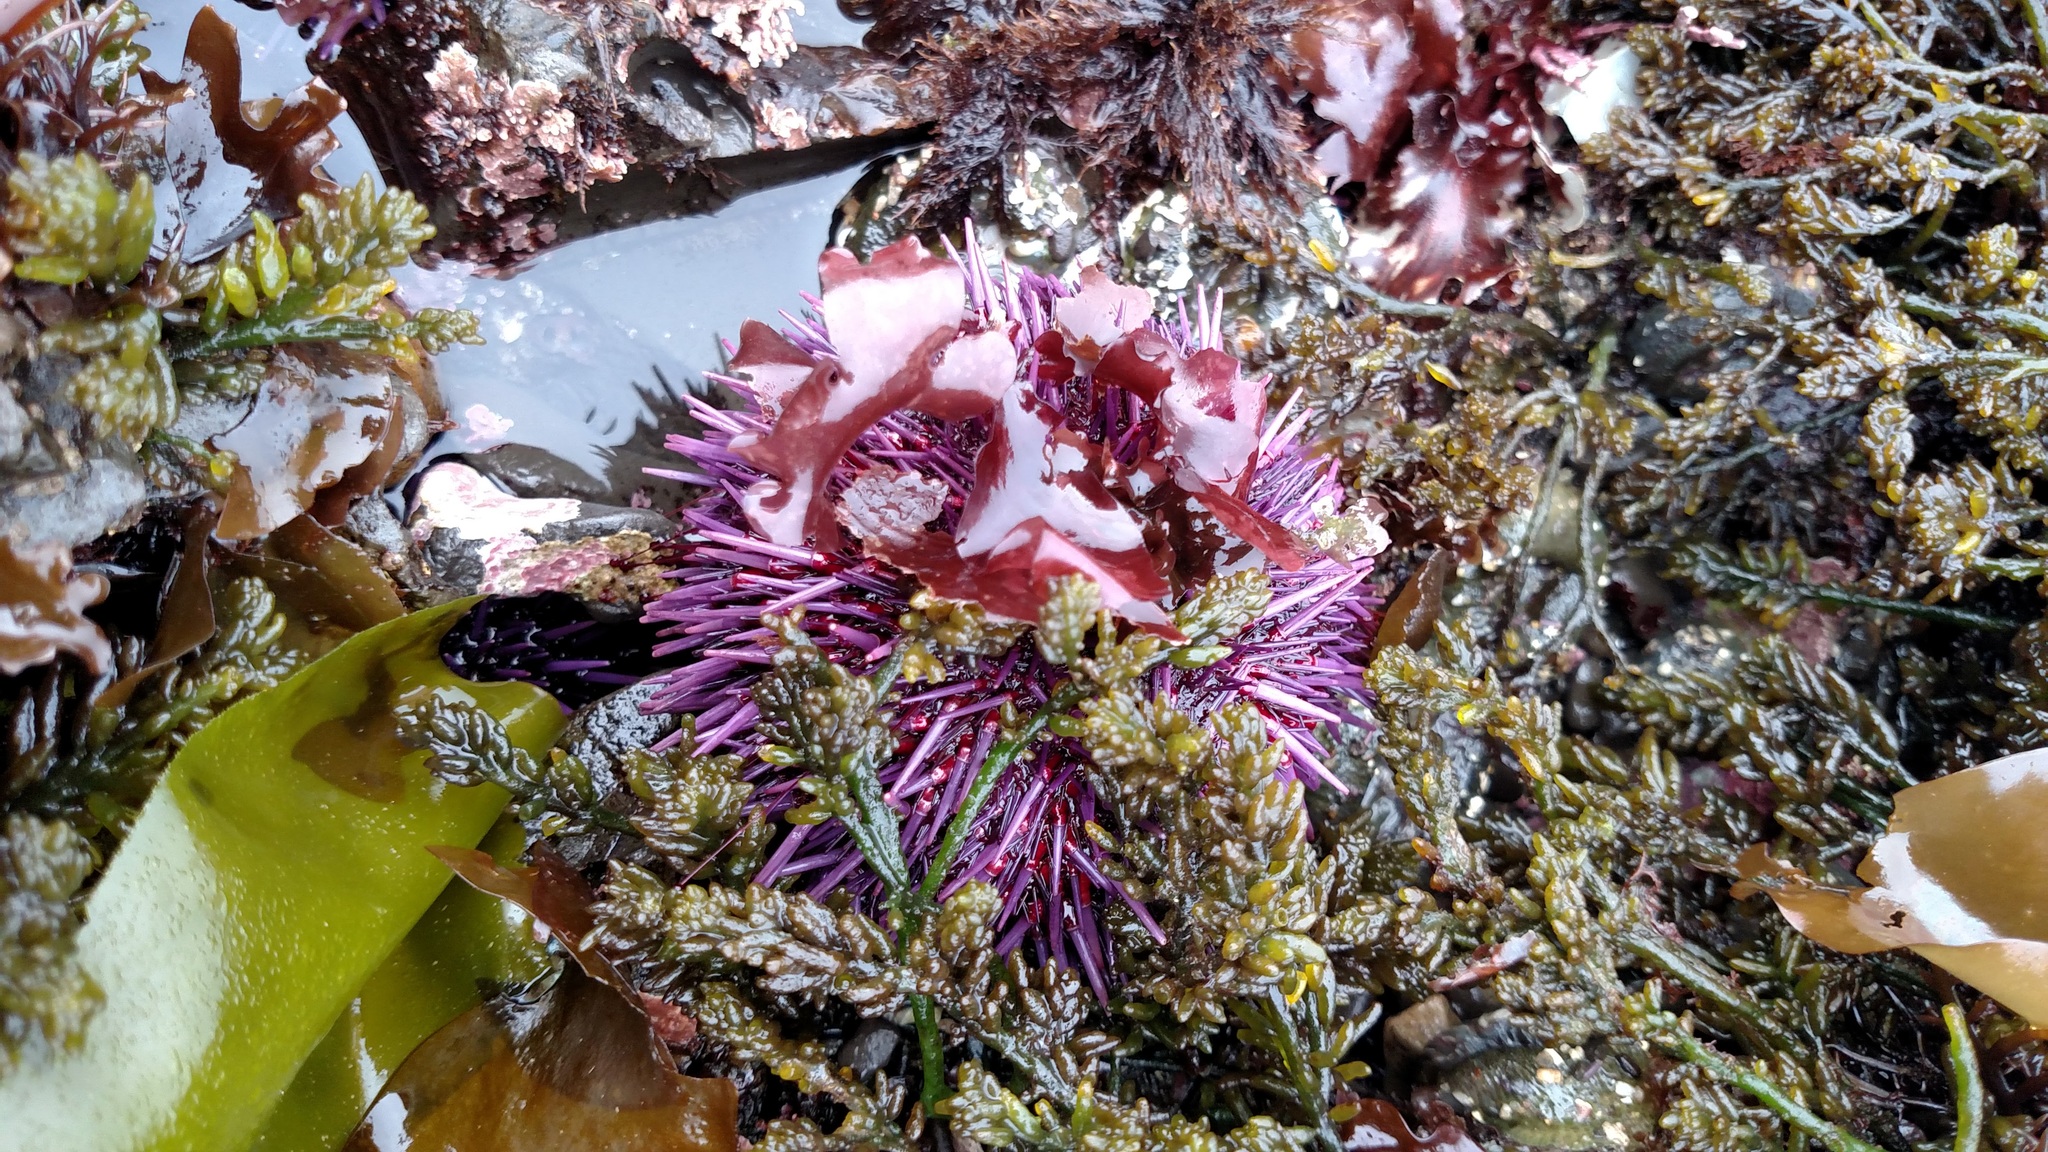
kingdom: Animalia
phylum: Echinodermata
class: Echinoidea
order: Camarodonta
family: Strongylocentrotidae
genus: Strongylocentrotus
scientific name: Strongylocentrotus purpuratus
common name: Purple sea urchin
